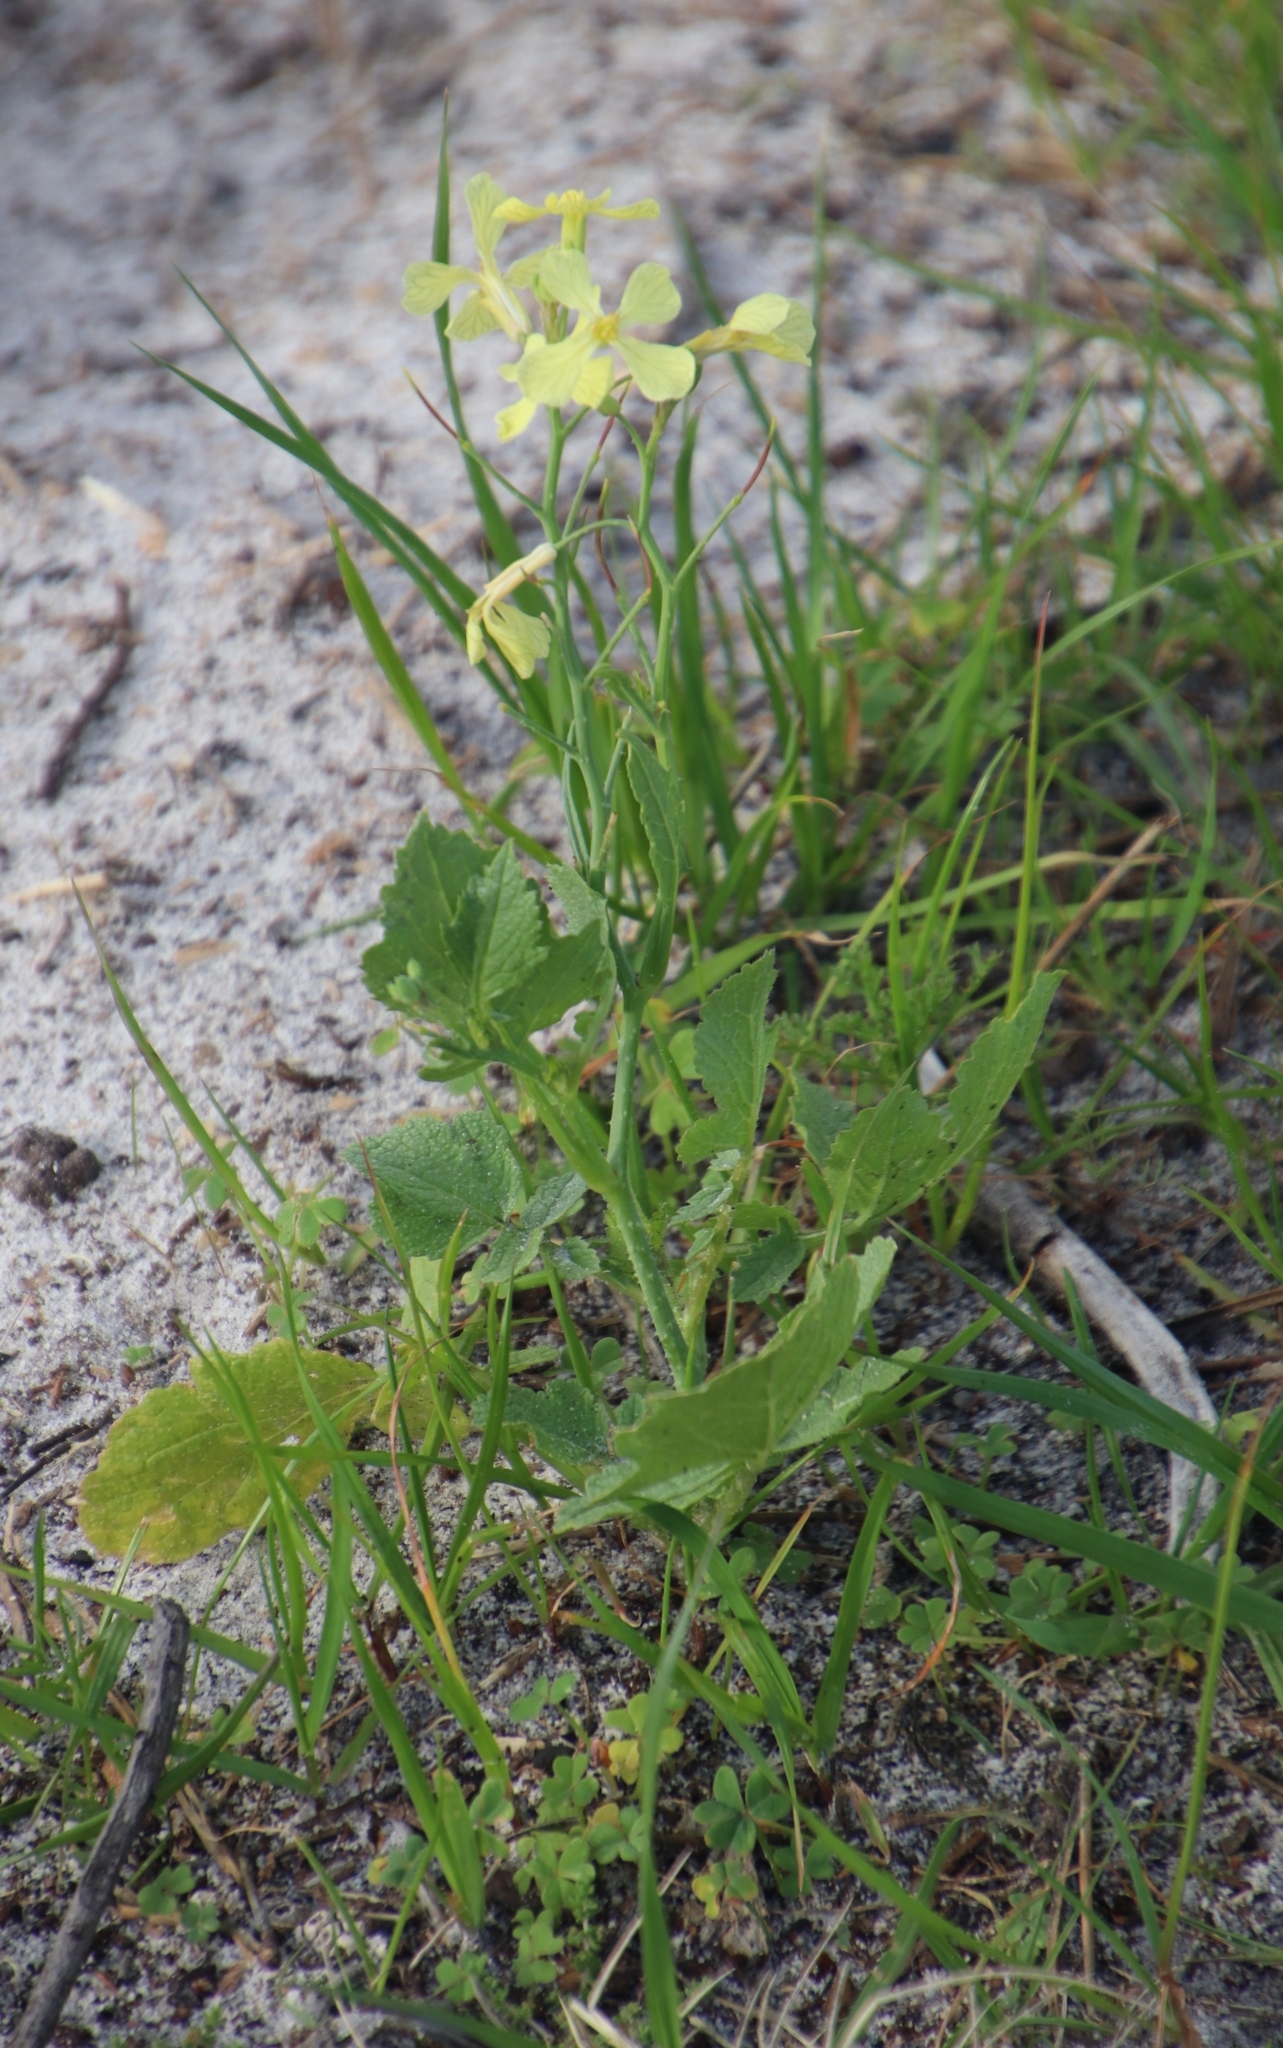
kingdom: Plantae
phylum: Tracheophyta
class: Magnoliopsida
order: Brassicales
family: Brassicaceae
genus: Raphanus
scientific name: Raphanus raphanistrum
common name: Wild radish
